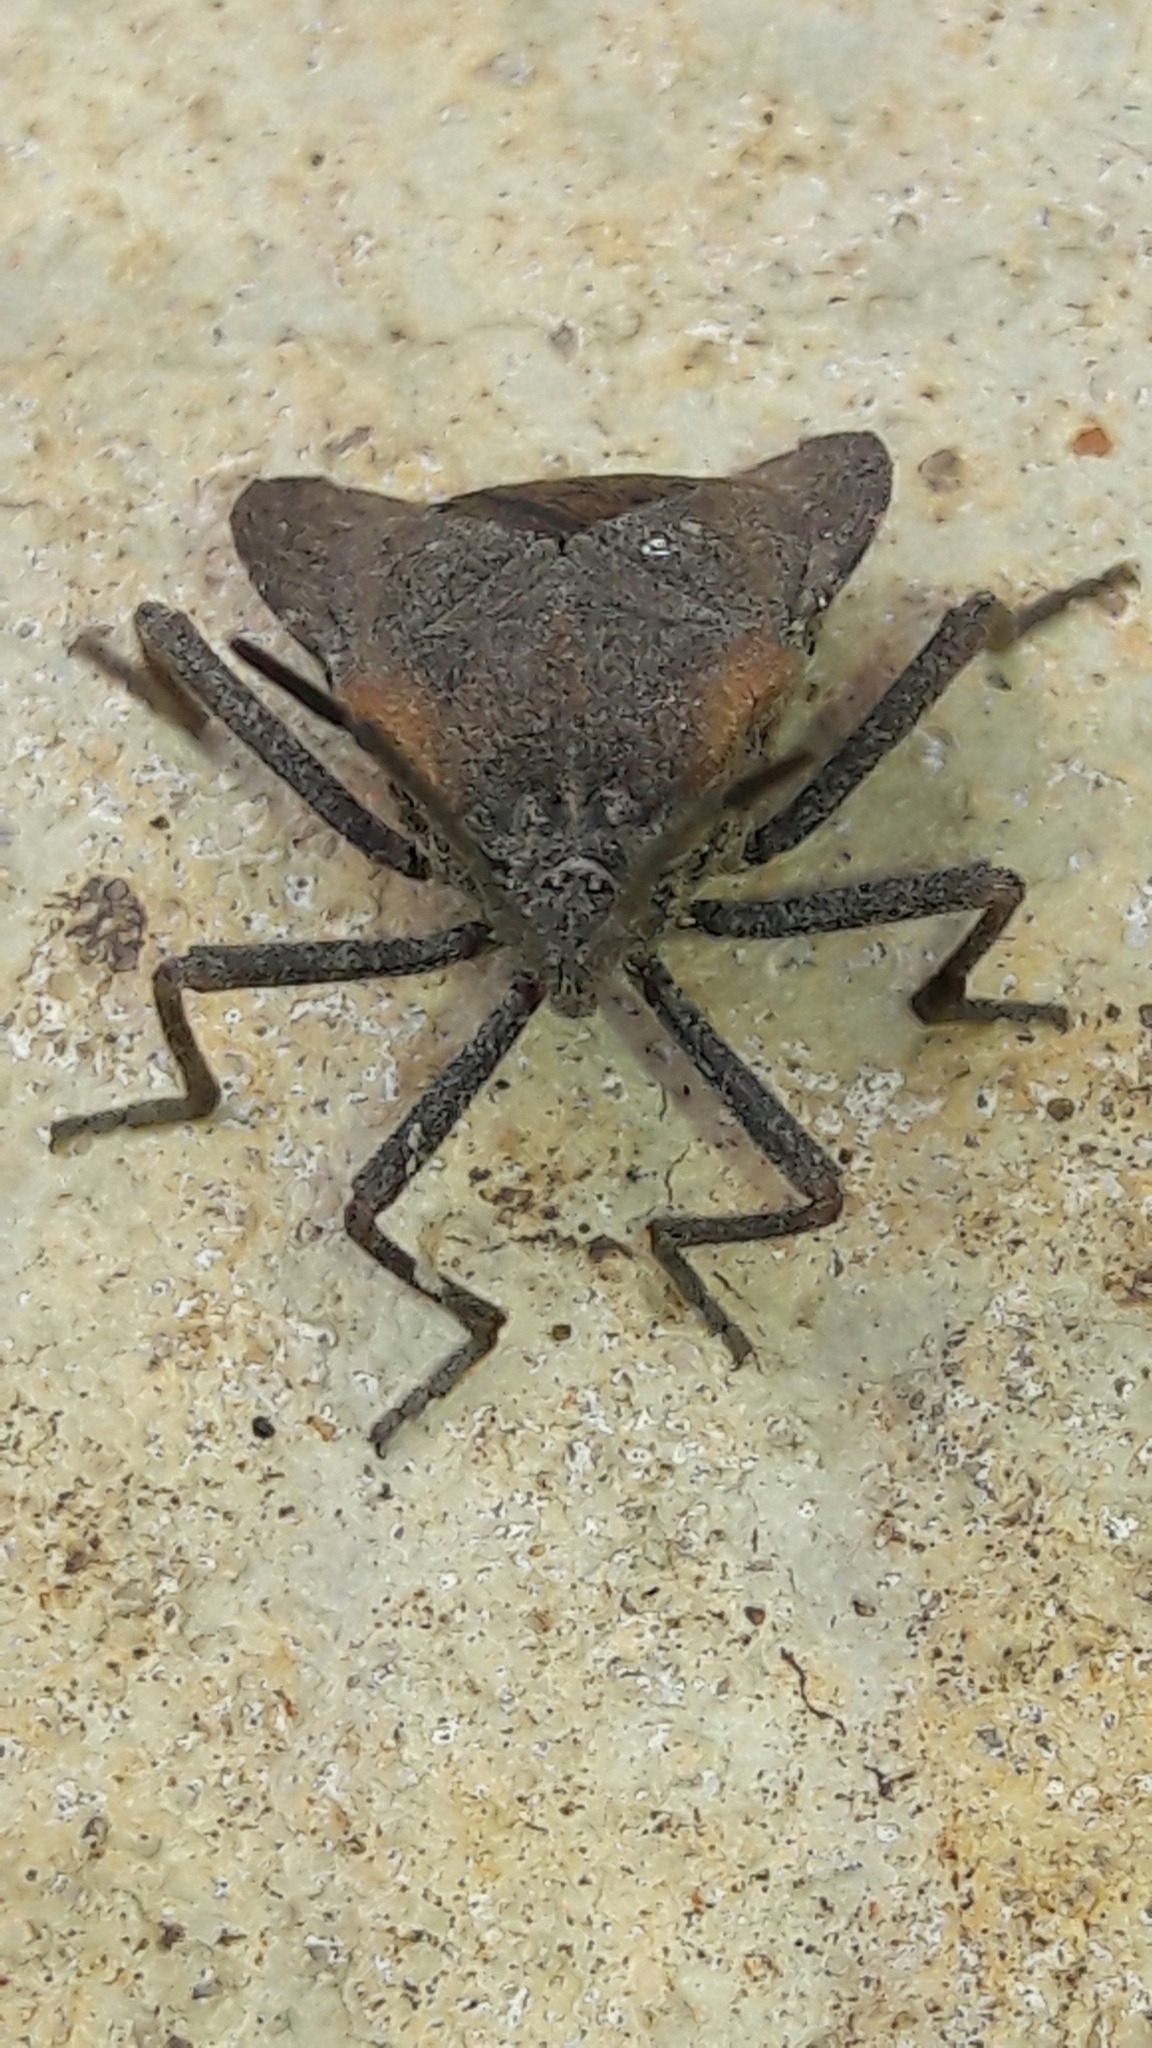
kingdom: Animalia
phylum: Arthropoda
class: Insecta
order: Hemiptera
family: Coreidae
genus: Spartocera
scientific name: Spartocera batatas
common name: Giant sweetpotato bug
